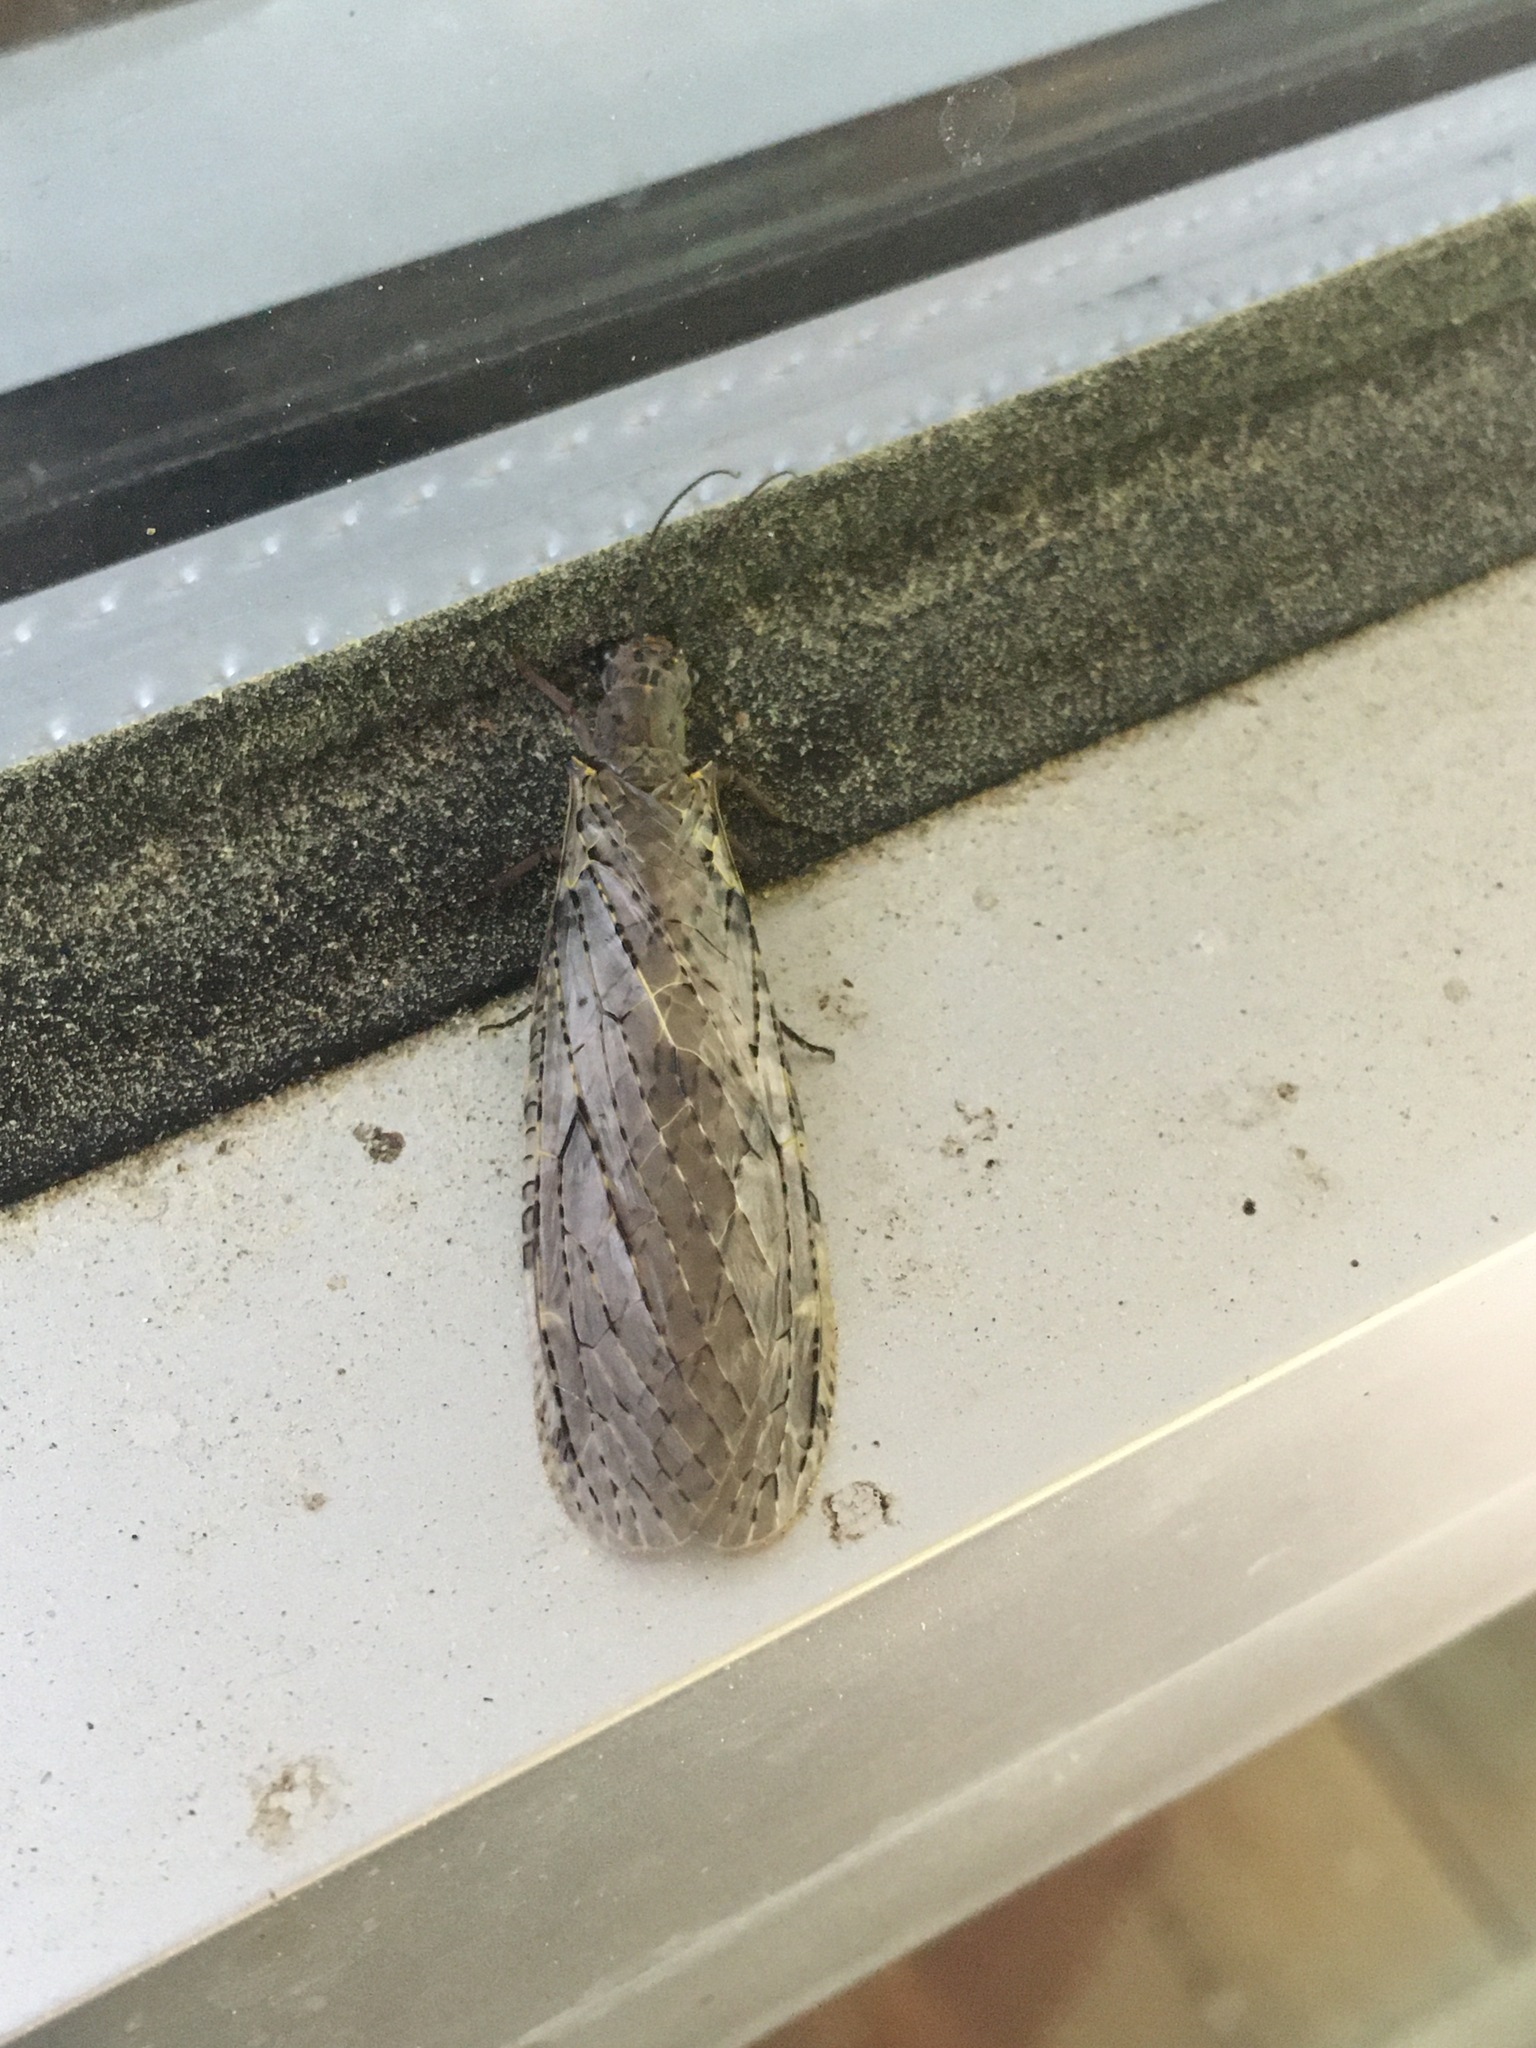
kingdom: Animalia
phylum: Arthropoda
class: Insecta
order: Megaloptera
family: Corydalidae
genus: Chauliodes
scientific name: Chauliodes rastricornis
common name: Spring fishfly
